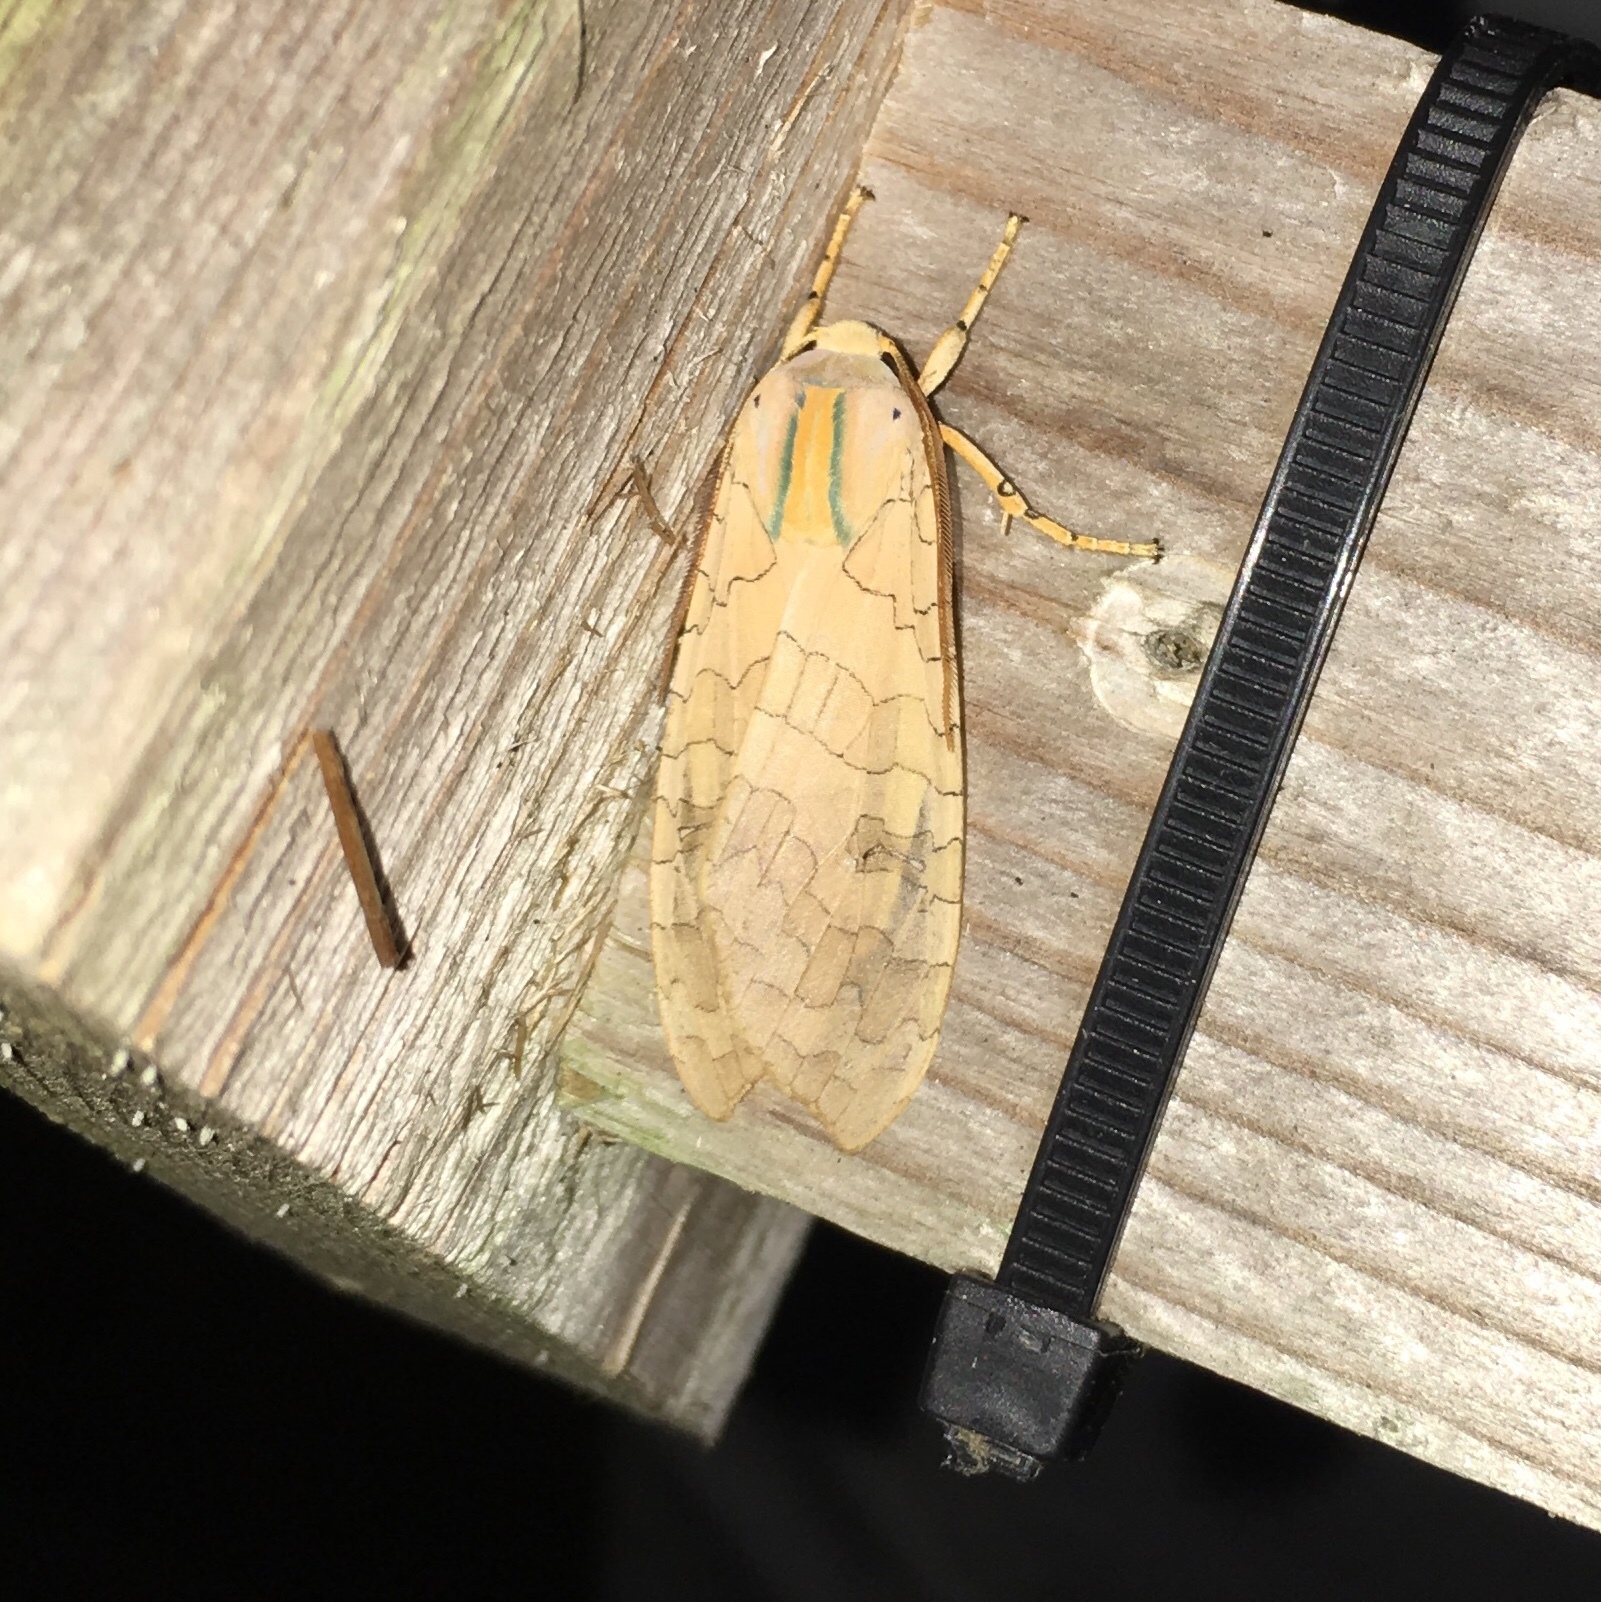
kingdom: Animalia
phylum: Arthropoda
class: Insecta
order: Lepidoptera
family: Erebidae
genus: Halysidota
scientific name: Halysidota
